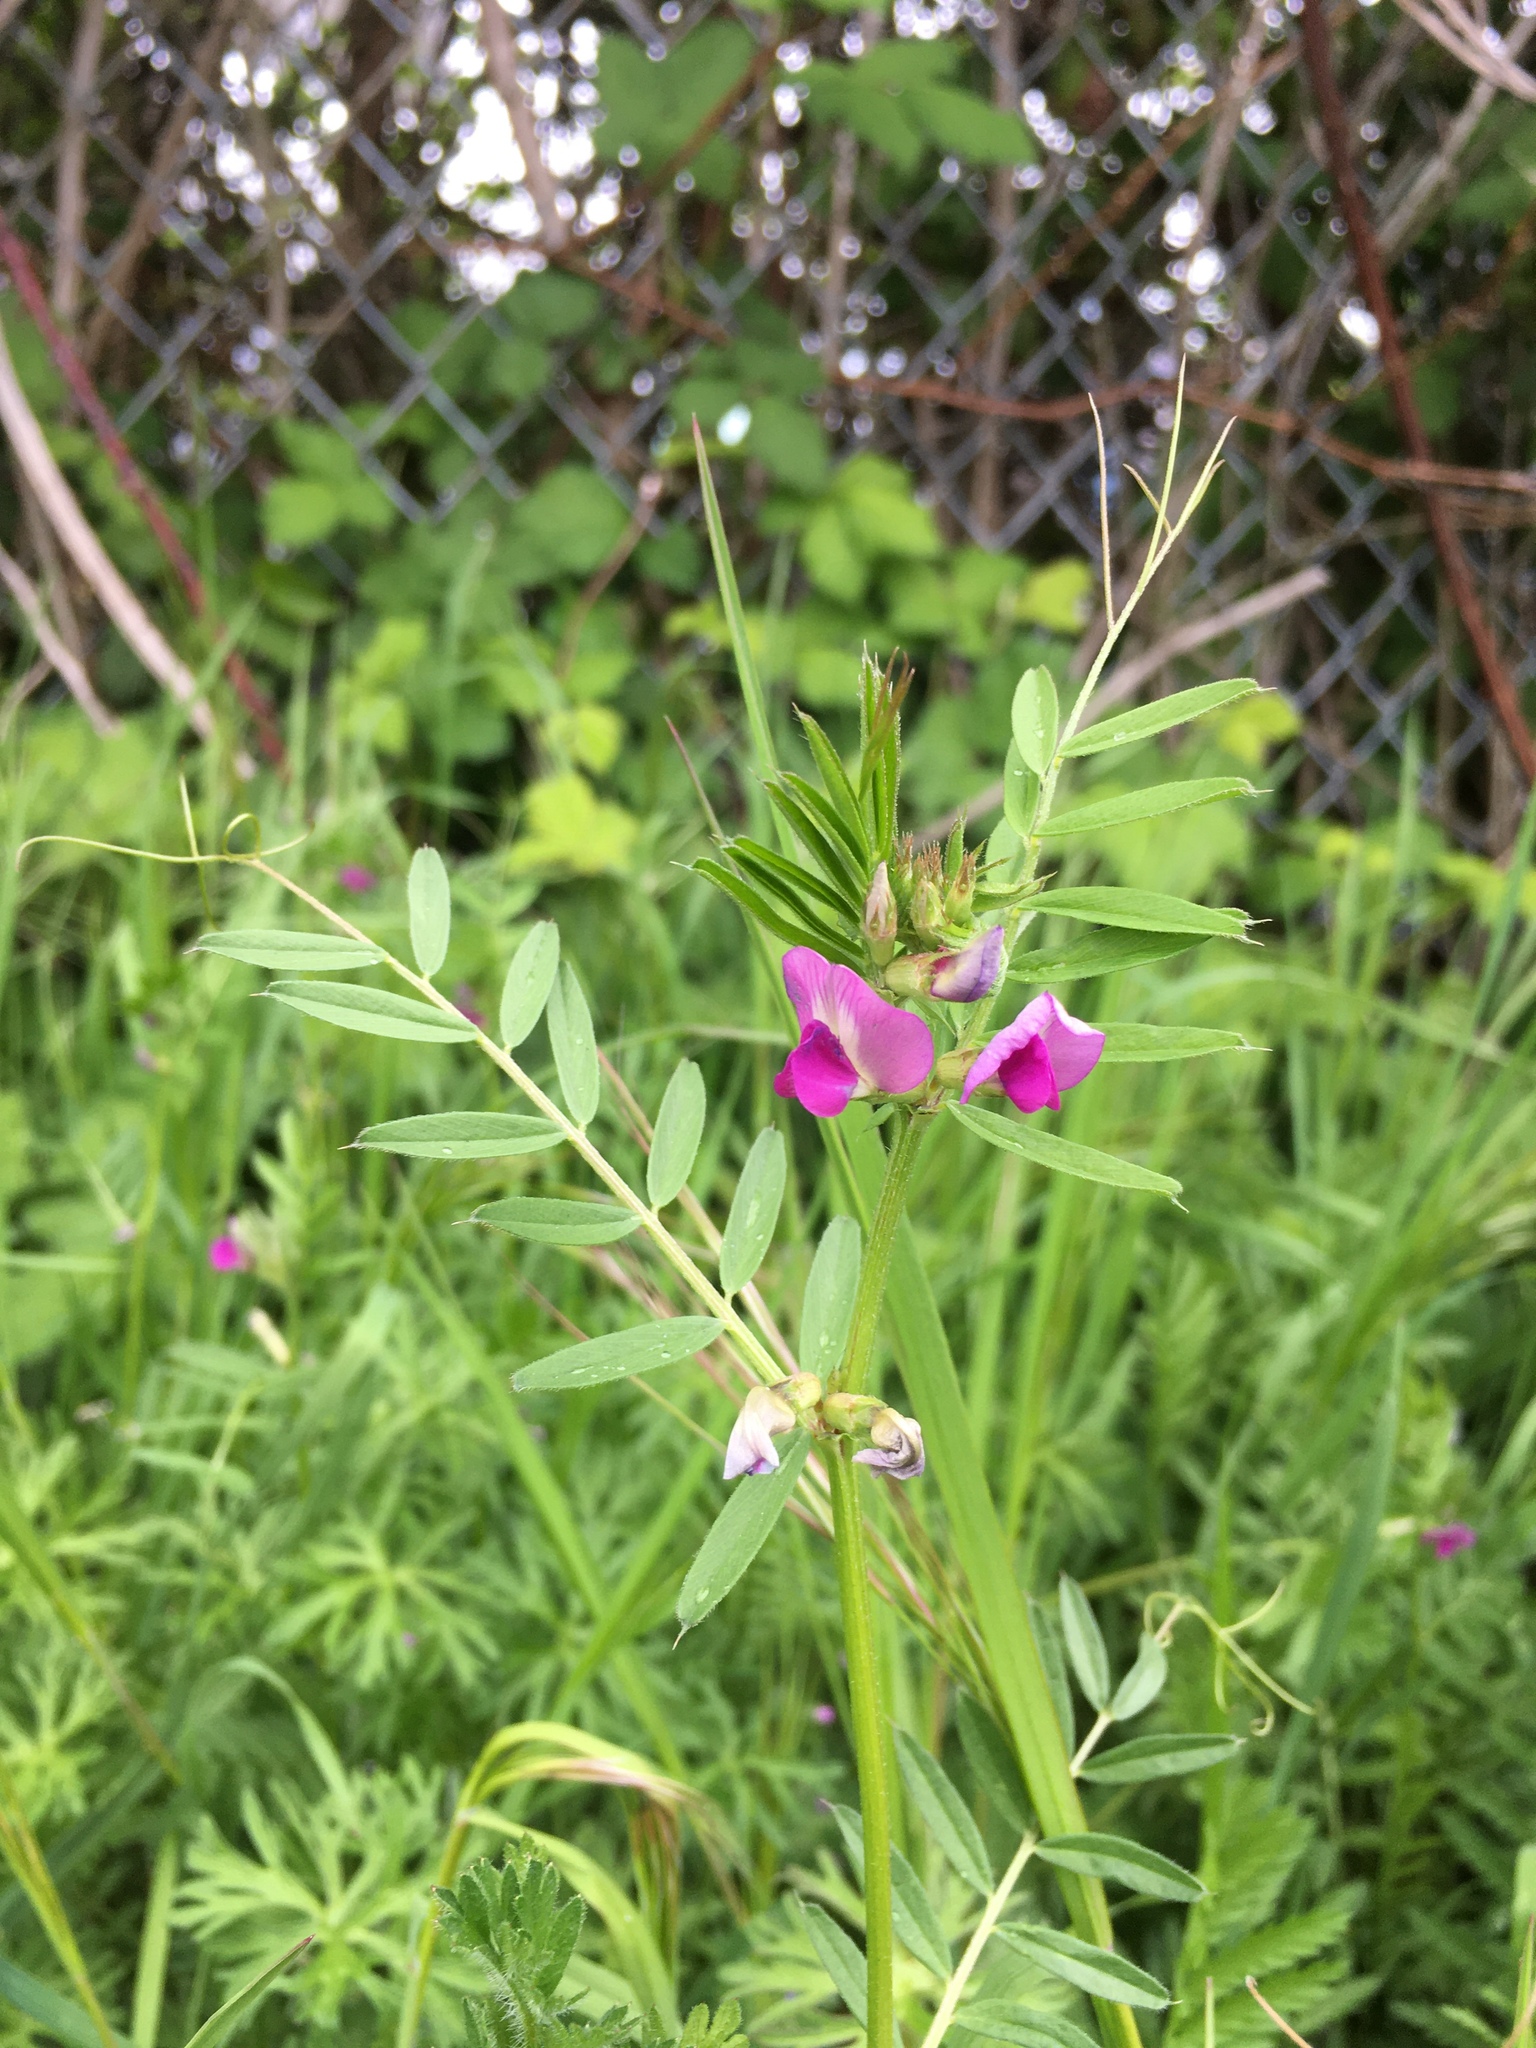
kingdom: Plantae
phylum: Tracheophyta
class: Magnoliopsida
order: Fabales
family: Fabaceae
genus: Vicia
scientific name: Vicia sativa
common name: Garden vetch
